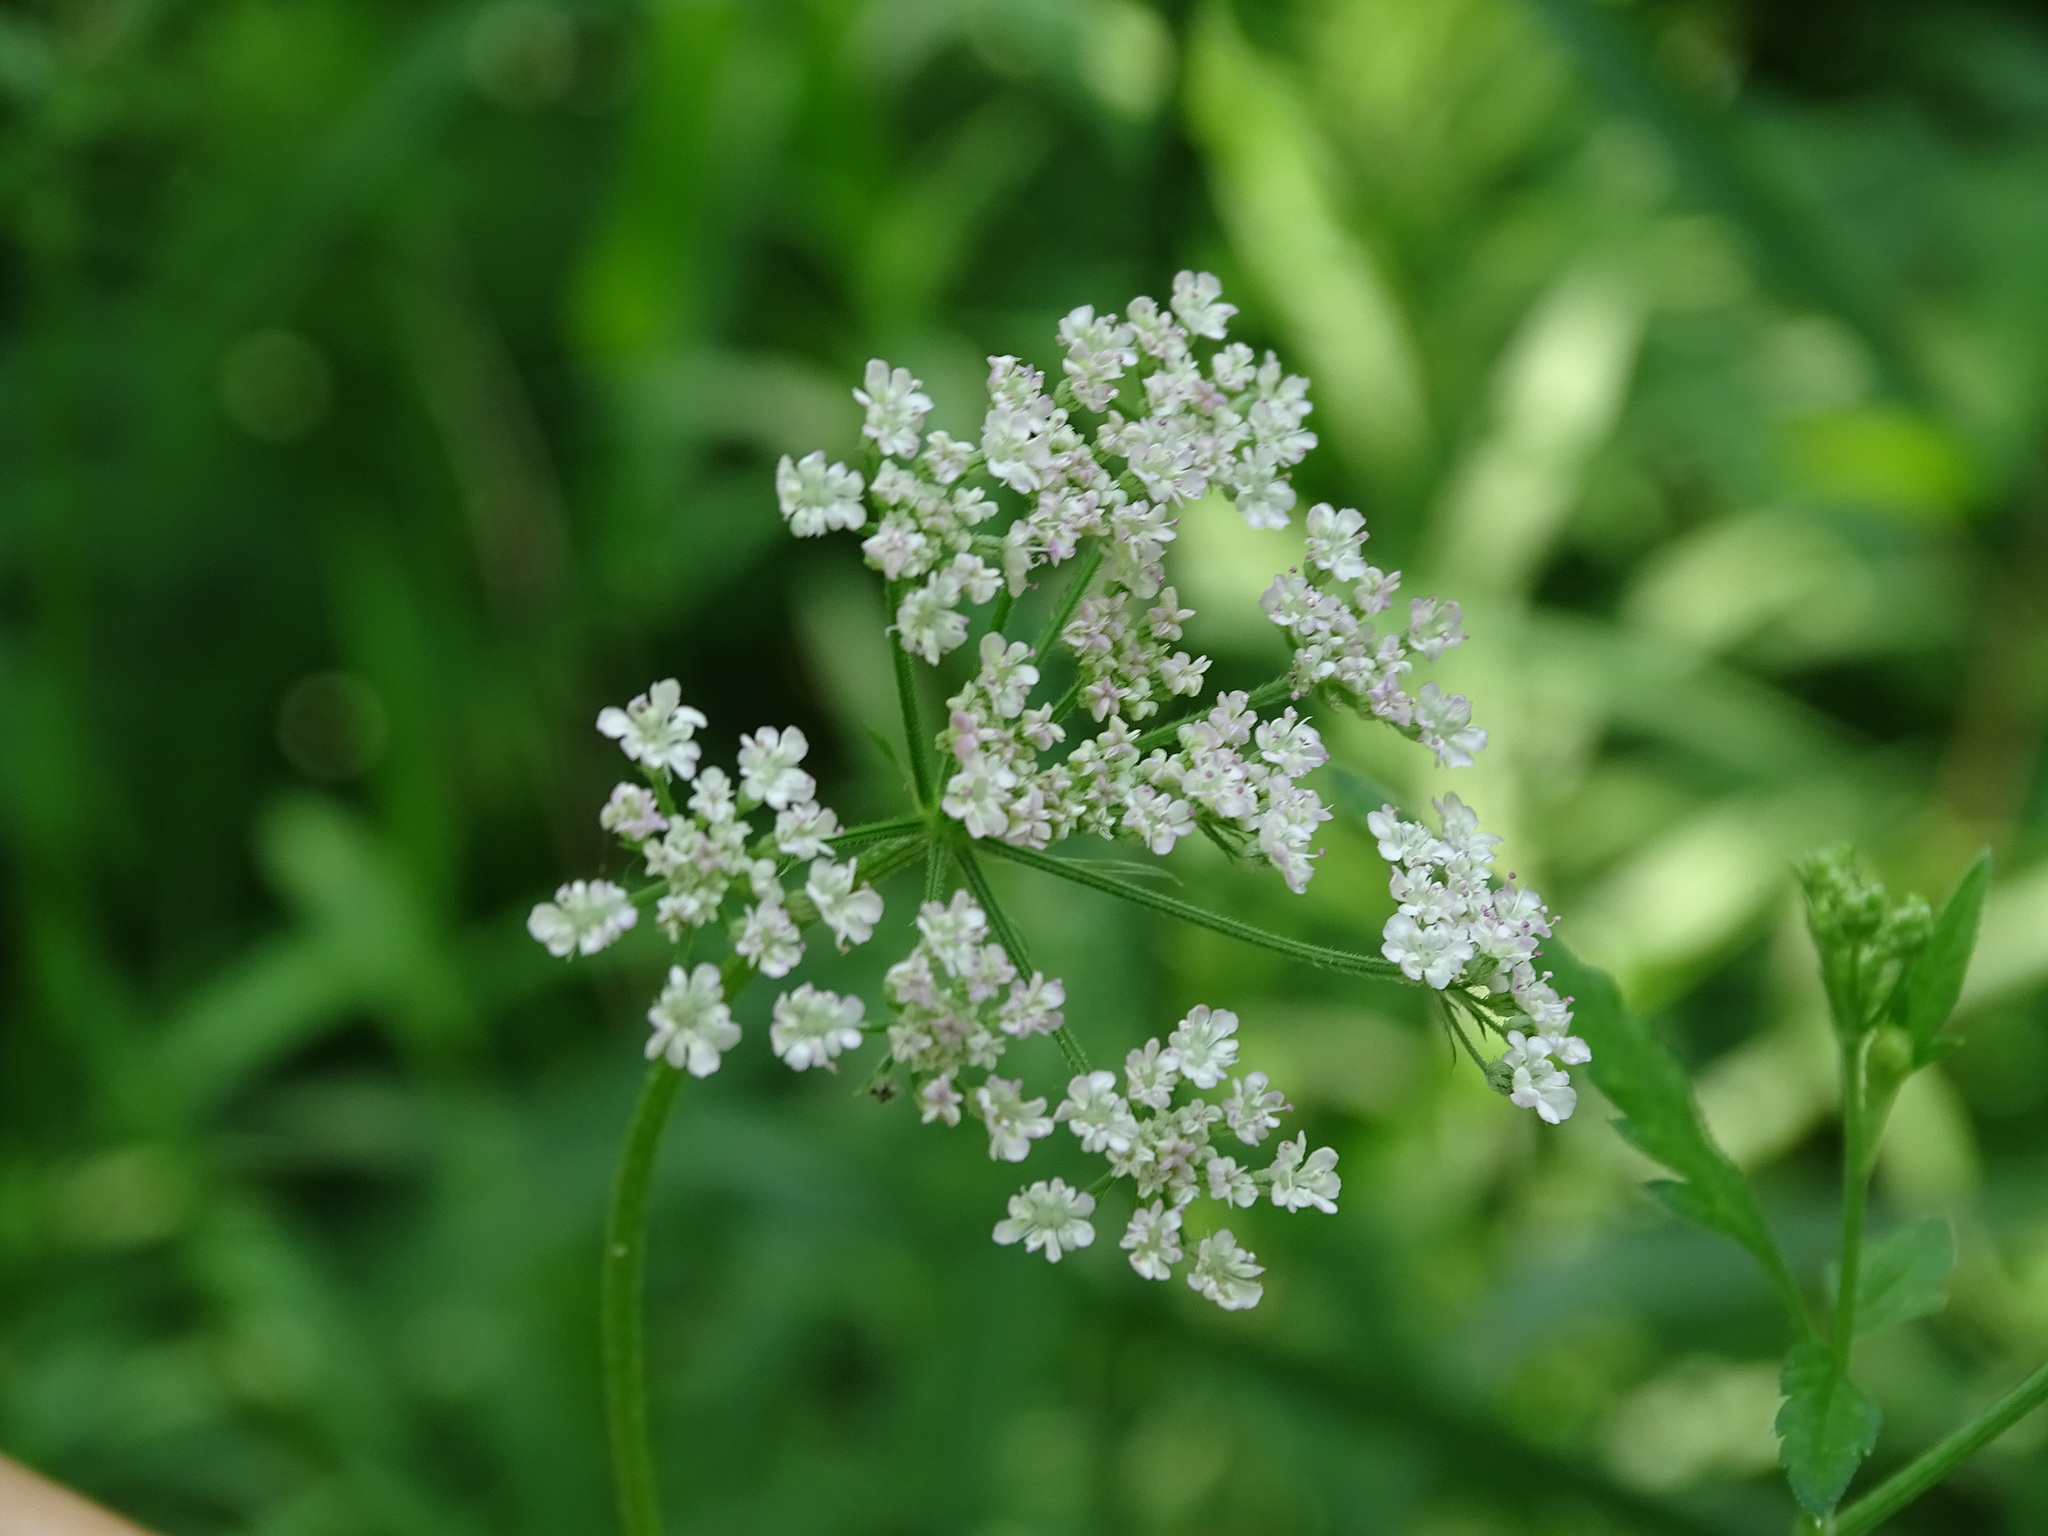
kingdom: Plantae
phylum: Tracheophyta
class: Magnoliopsida
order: Apiales
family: Apiaceae
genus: Torilis
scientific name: Torilis japonica
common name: Upright hedge-parsley
